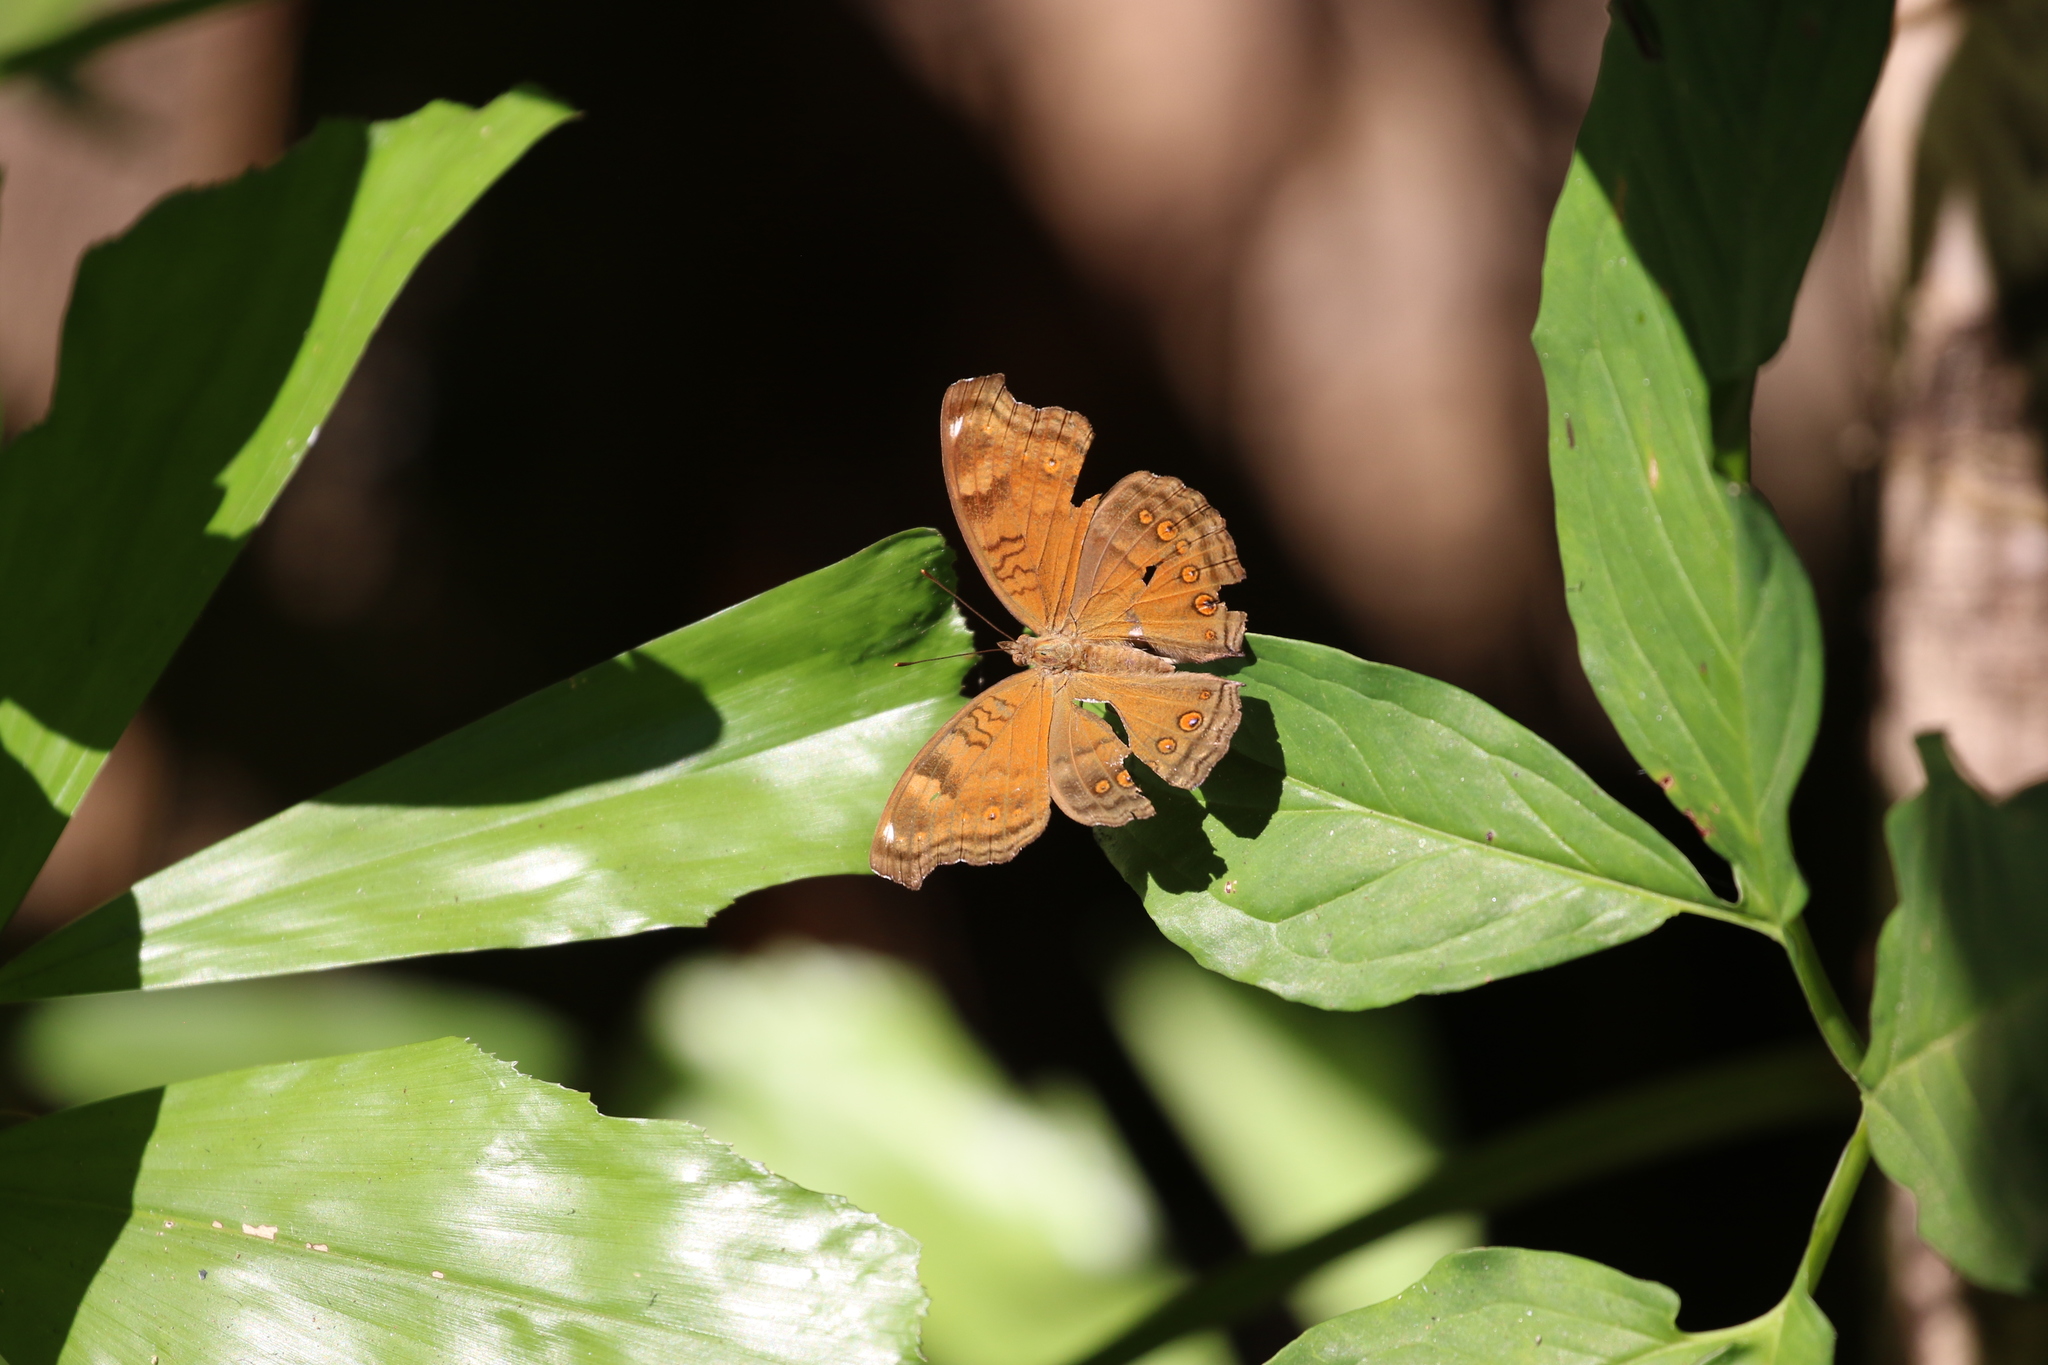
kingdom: Animalia
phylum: Arthropoda
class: Insecta
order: Lepidoptera
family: Nymphalidae
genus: Junonia
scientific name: Junonia hedonia
